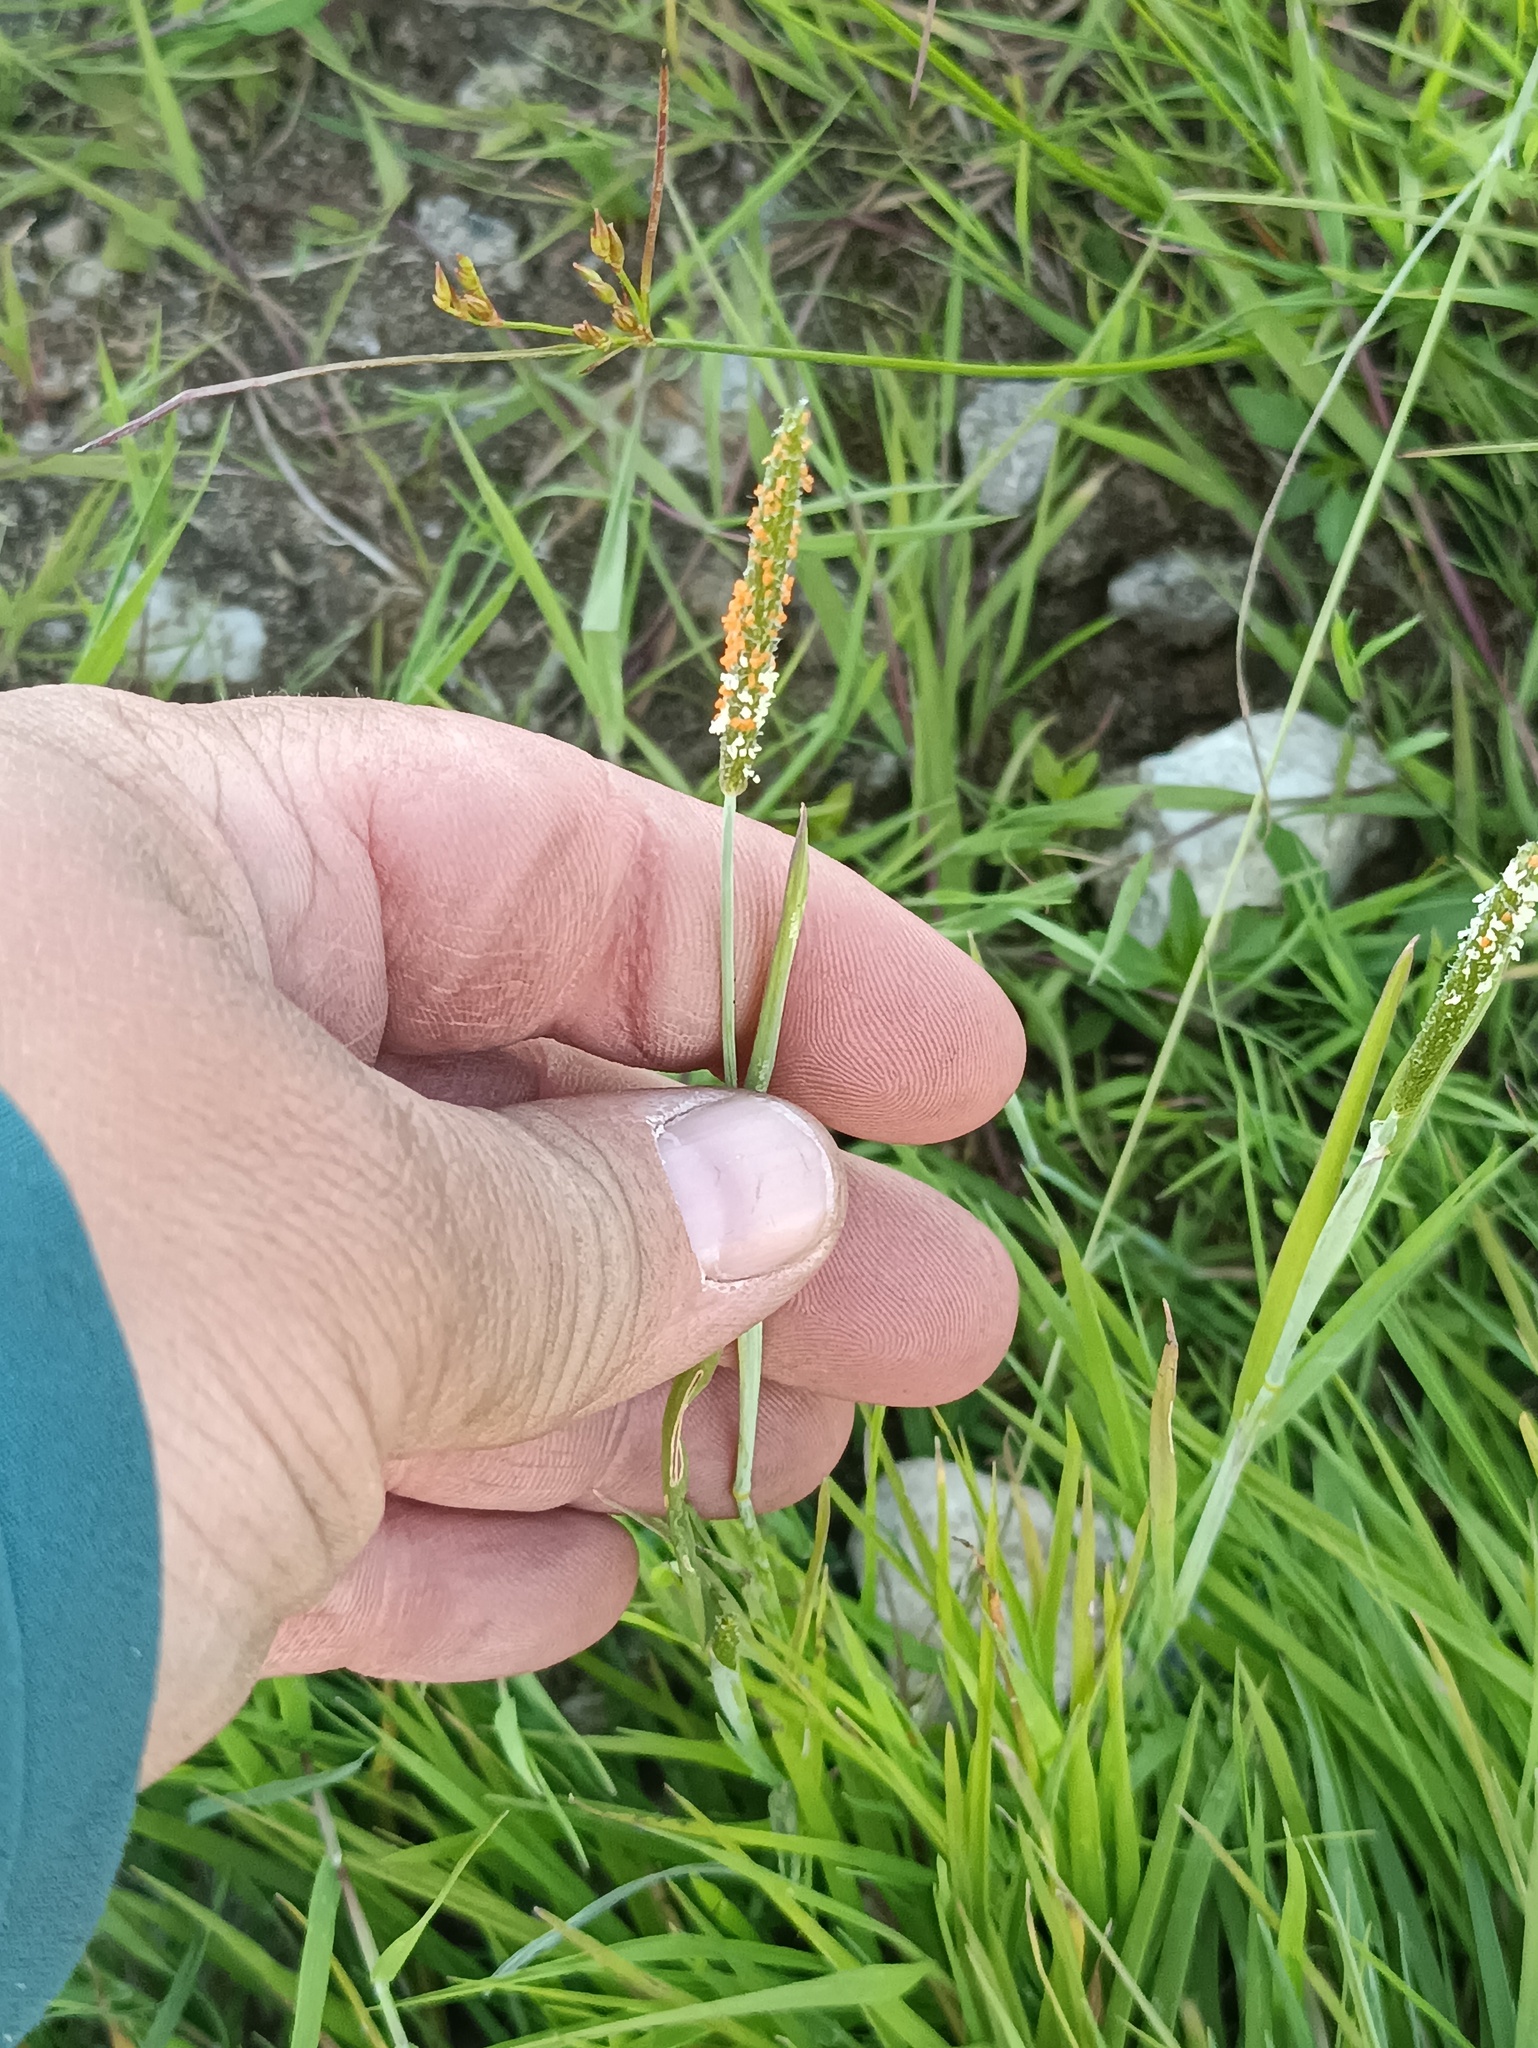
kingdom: Plantae
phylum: Tracheophyta
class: Liliopsida
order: Poales
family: Poaceae
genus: Alopecurus
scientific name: Alopecurus aequalis
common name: Orange foxtail
